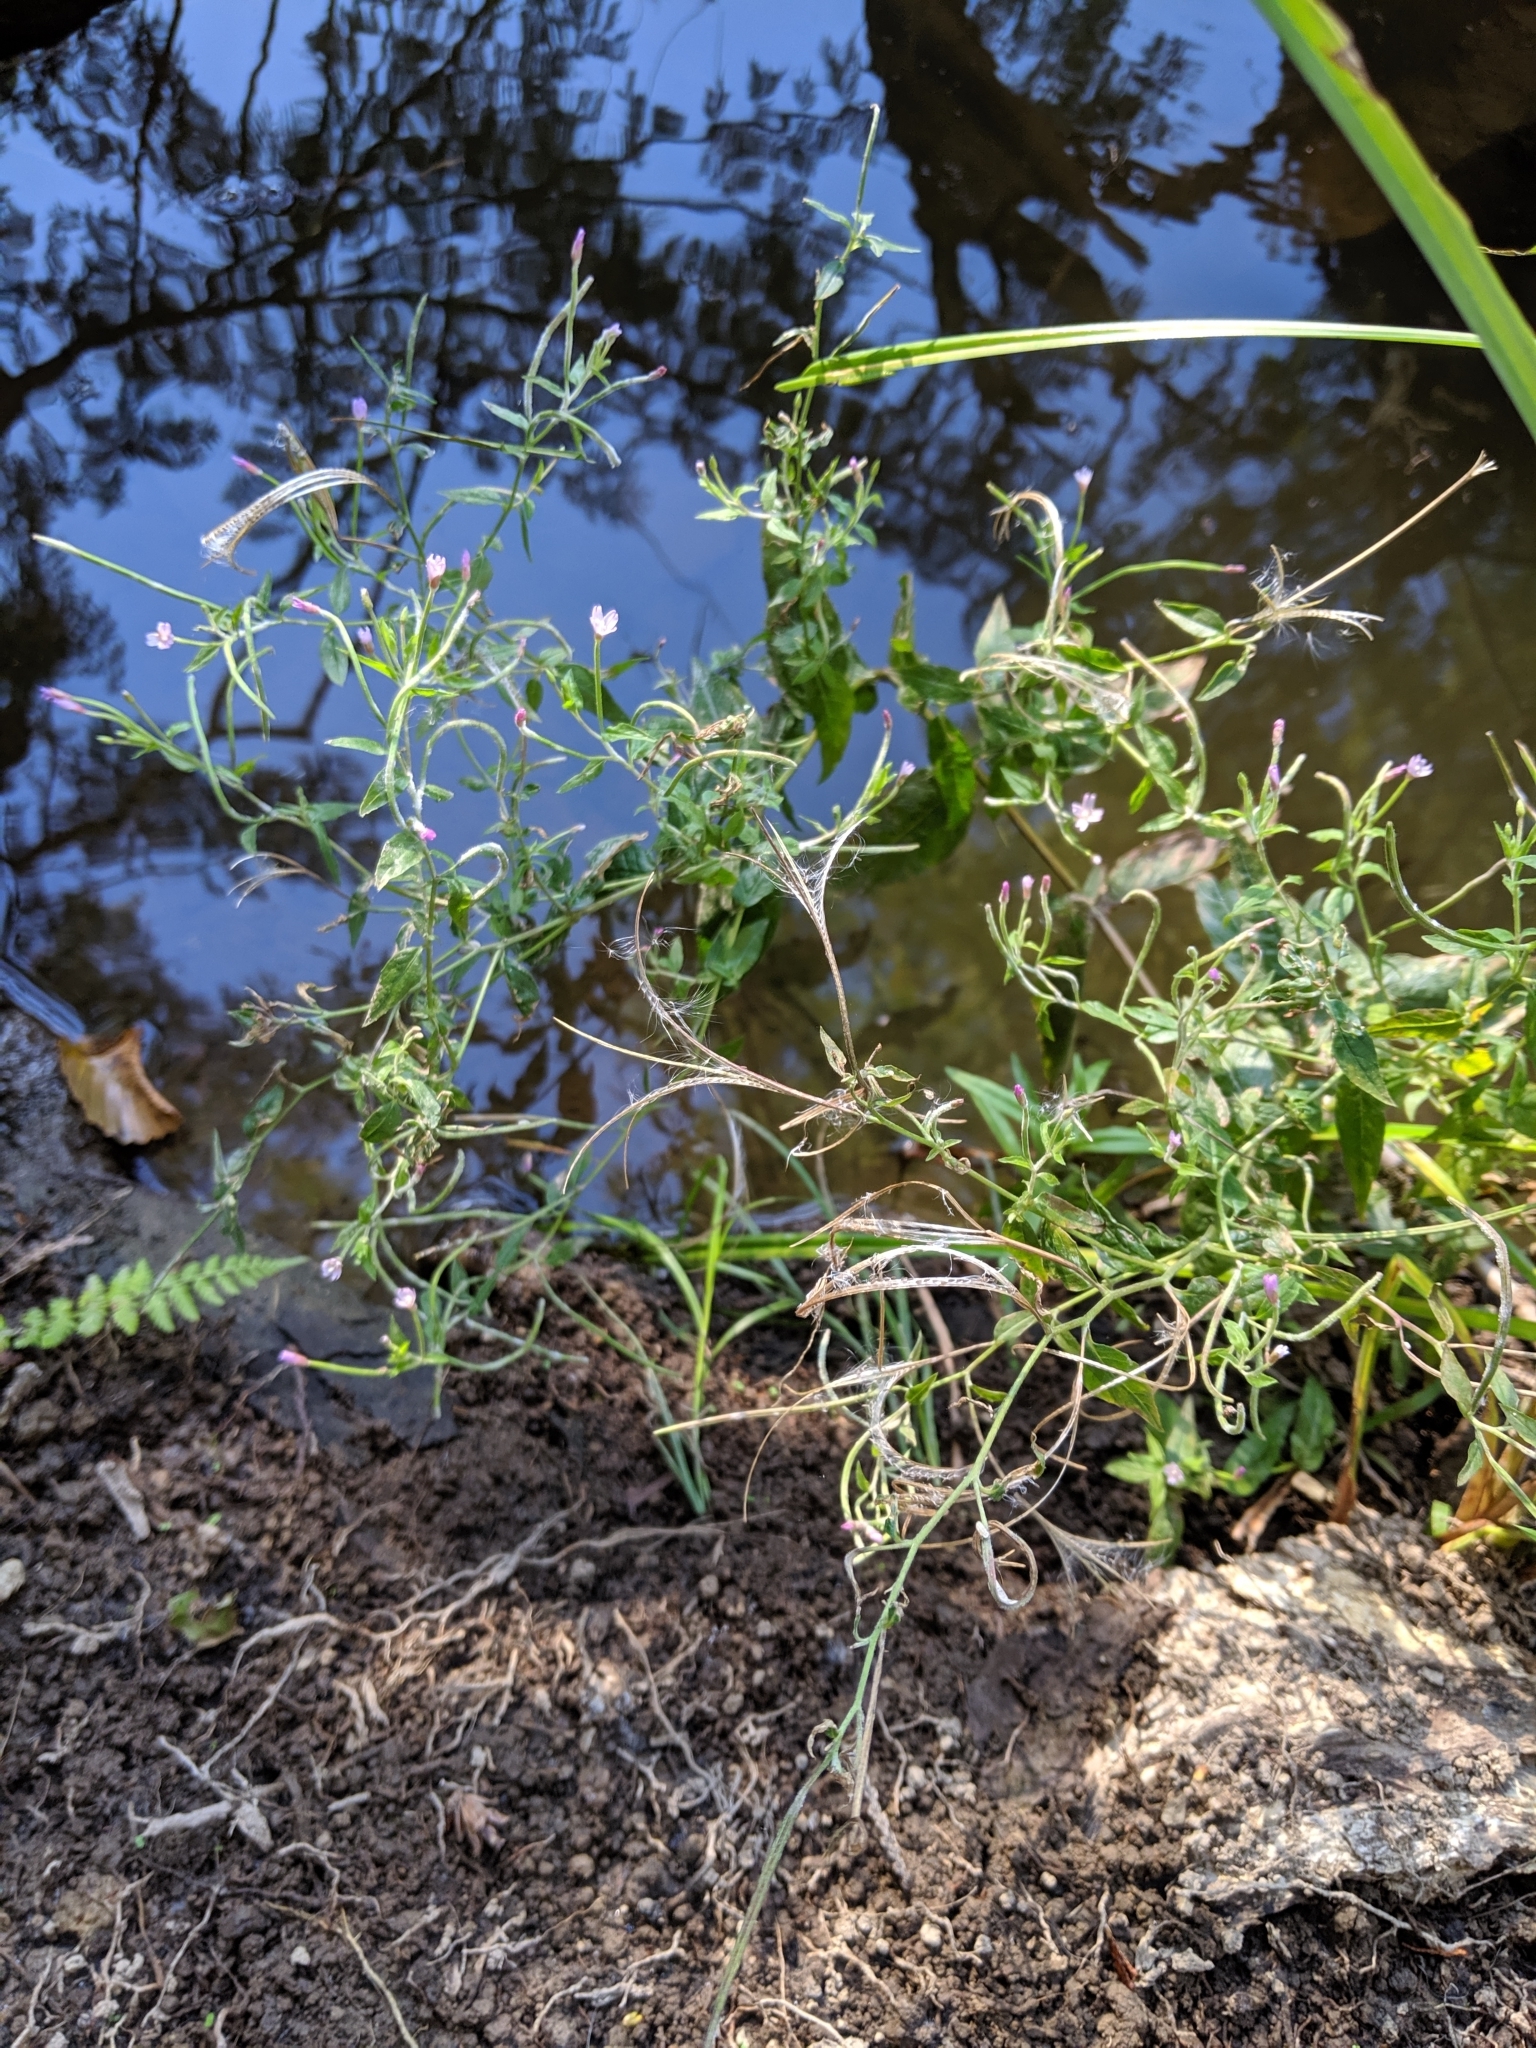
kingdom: Plantae
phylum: Tracheophyta
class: Magnoliopsida
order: Myrtales
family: Onagraceae
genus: Epilobium
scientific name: Epilobium ciliatum
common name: American willowherb
